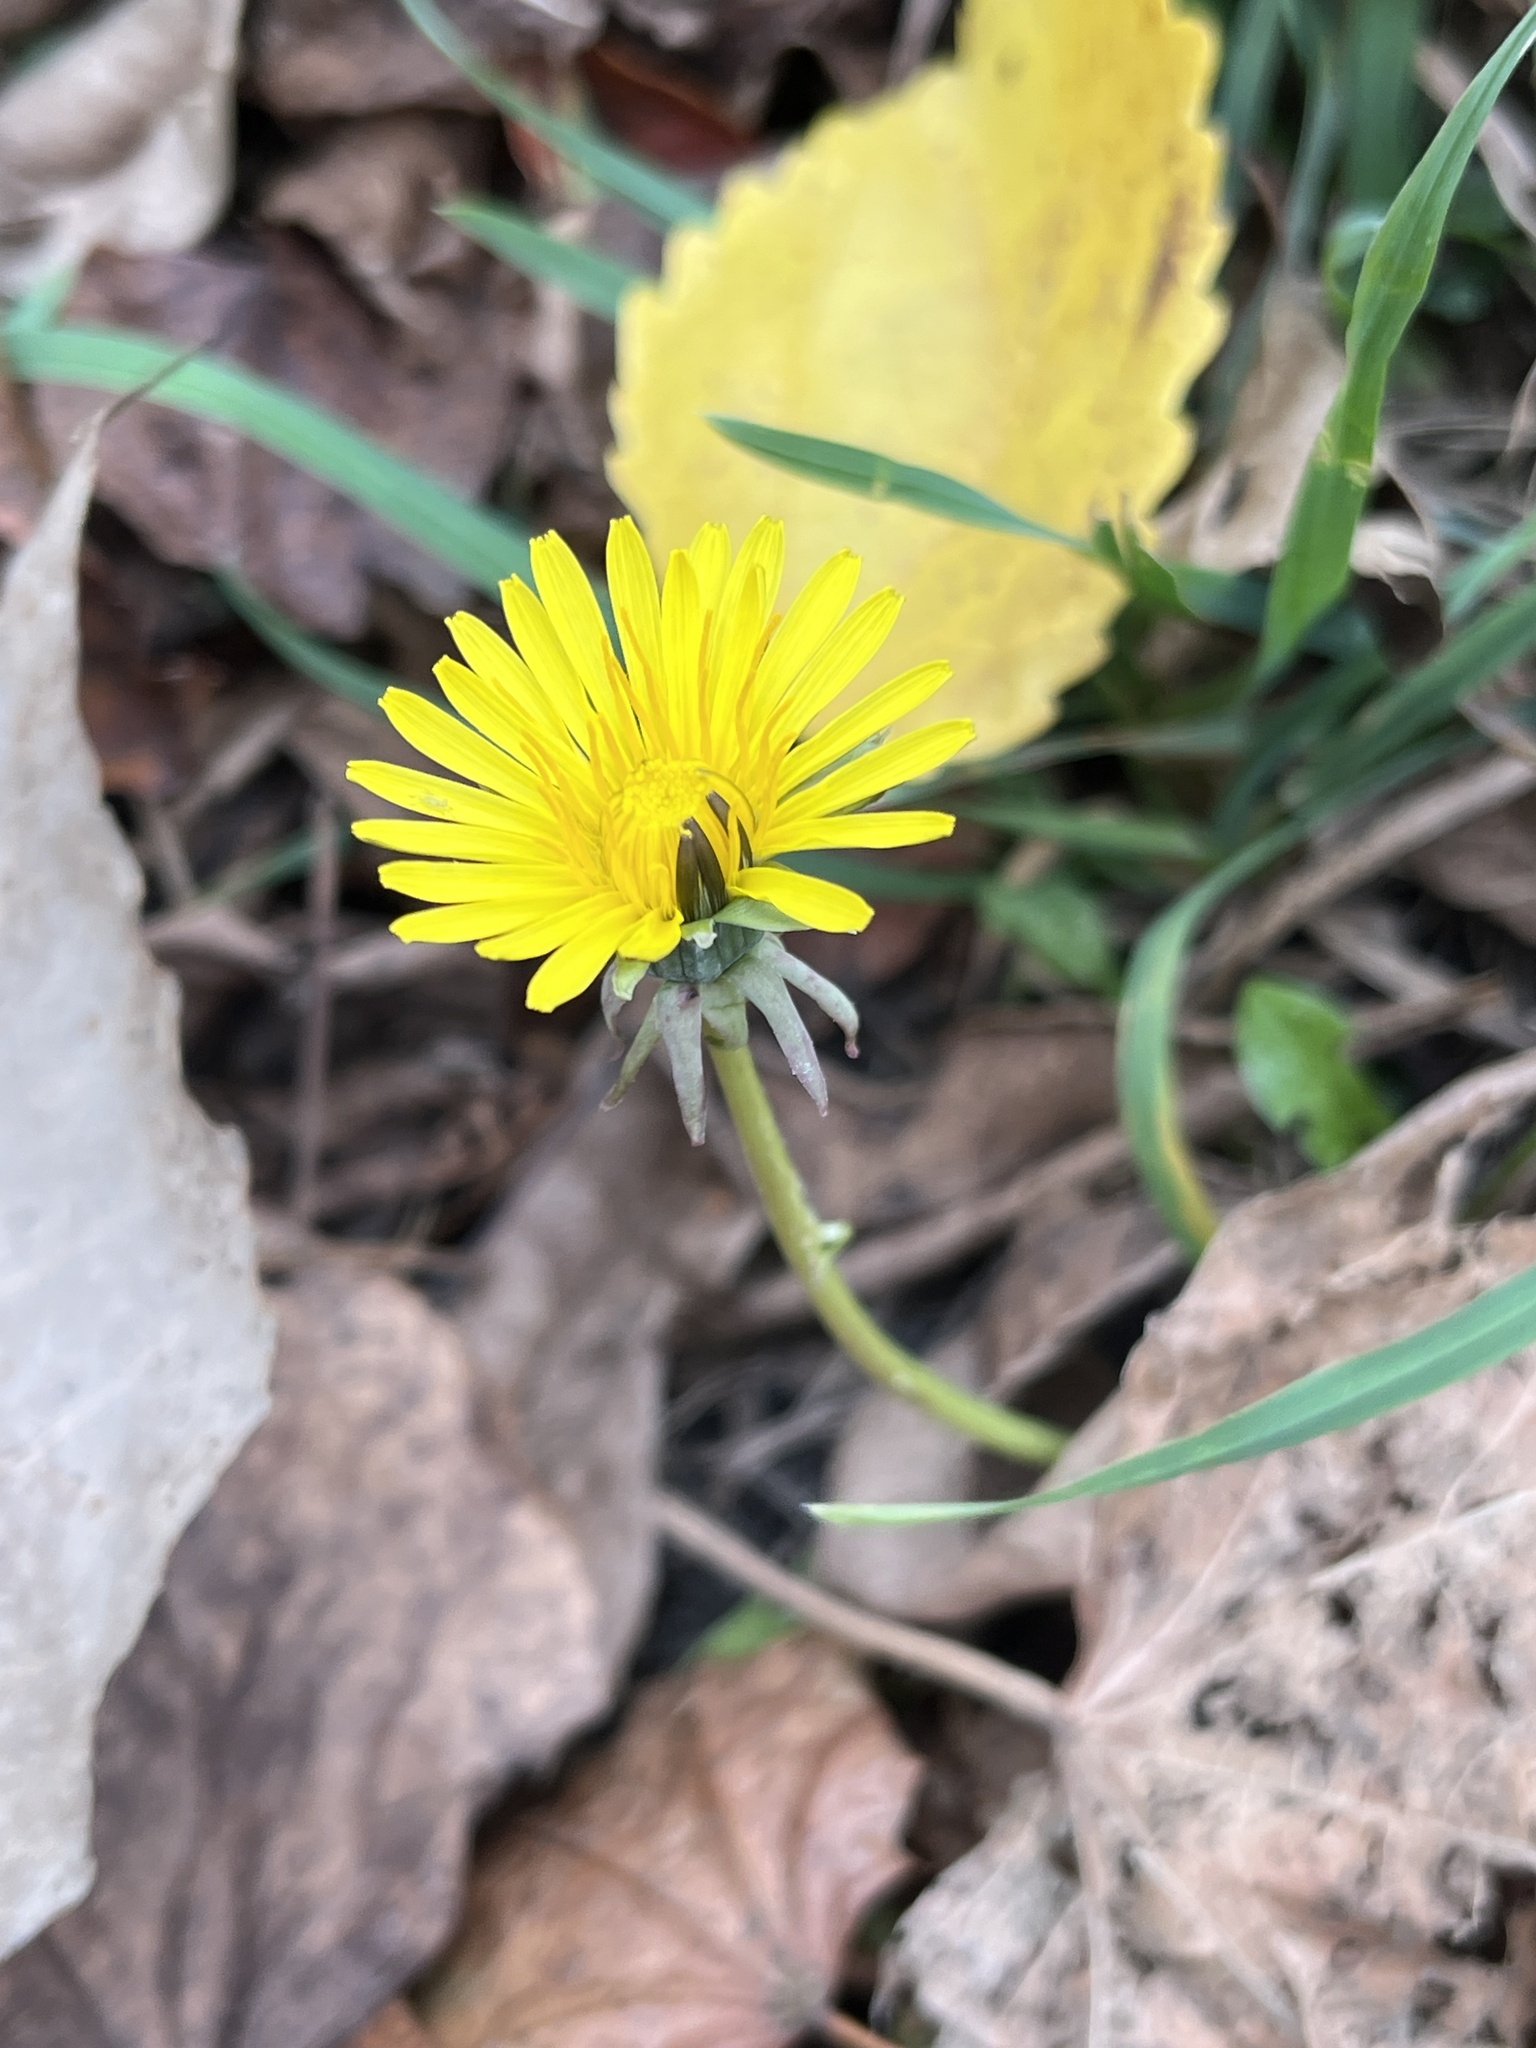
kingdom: Plantae
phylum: Tracheophyta
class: Magnoliopsida
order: Asterales
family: Asteraceae
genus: Taraxacum
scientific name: Taraxacum
